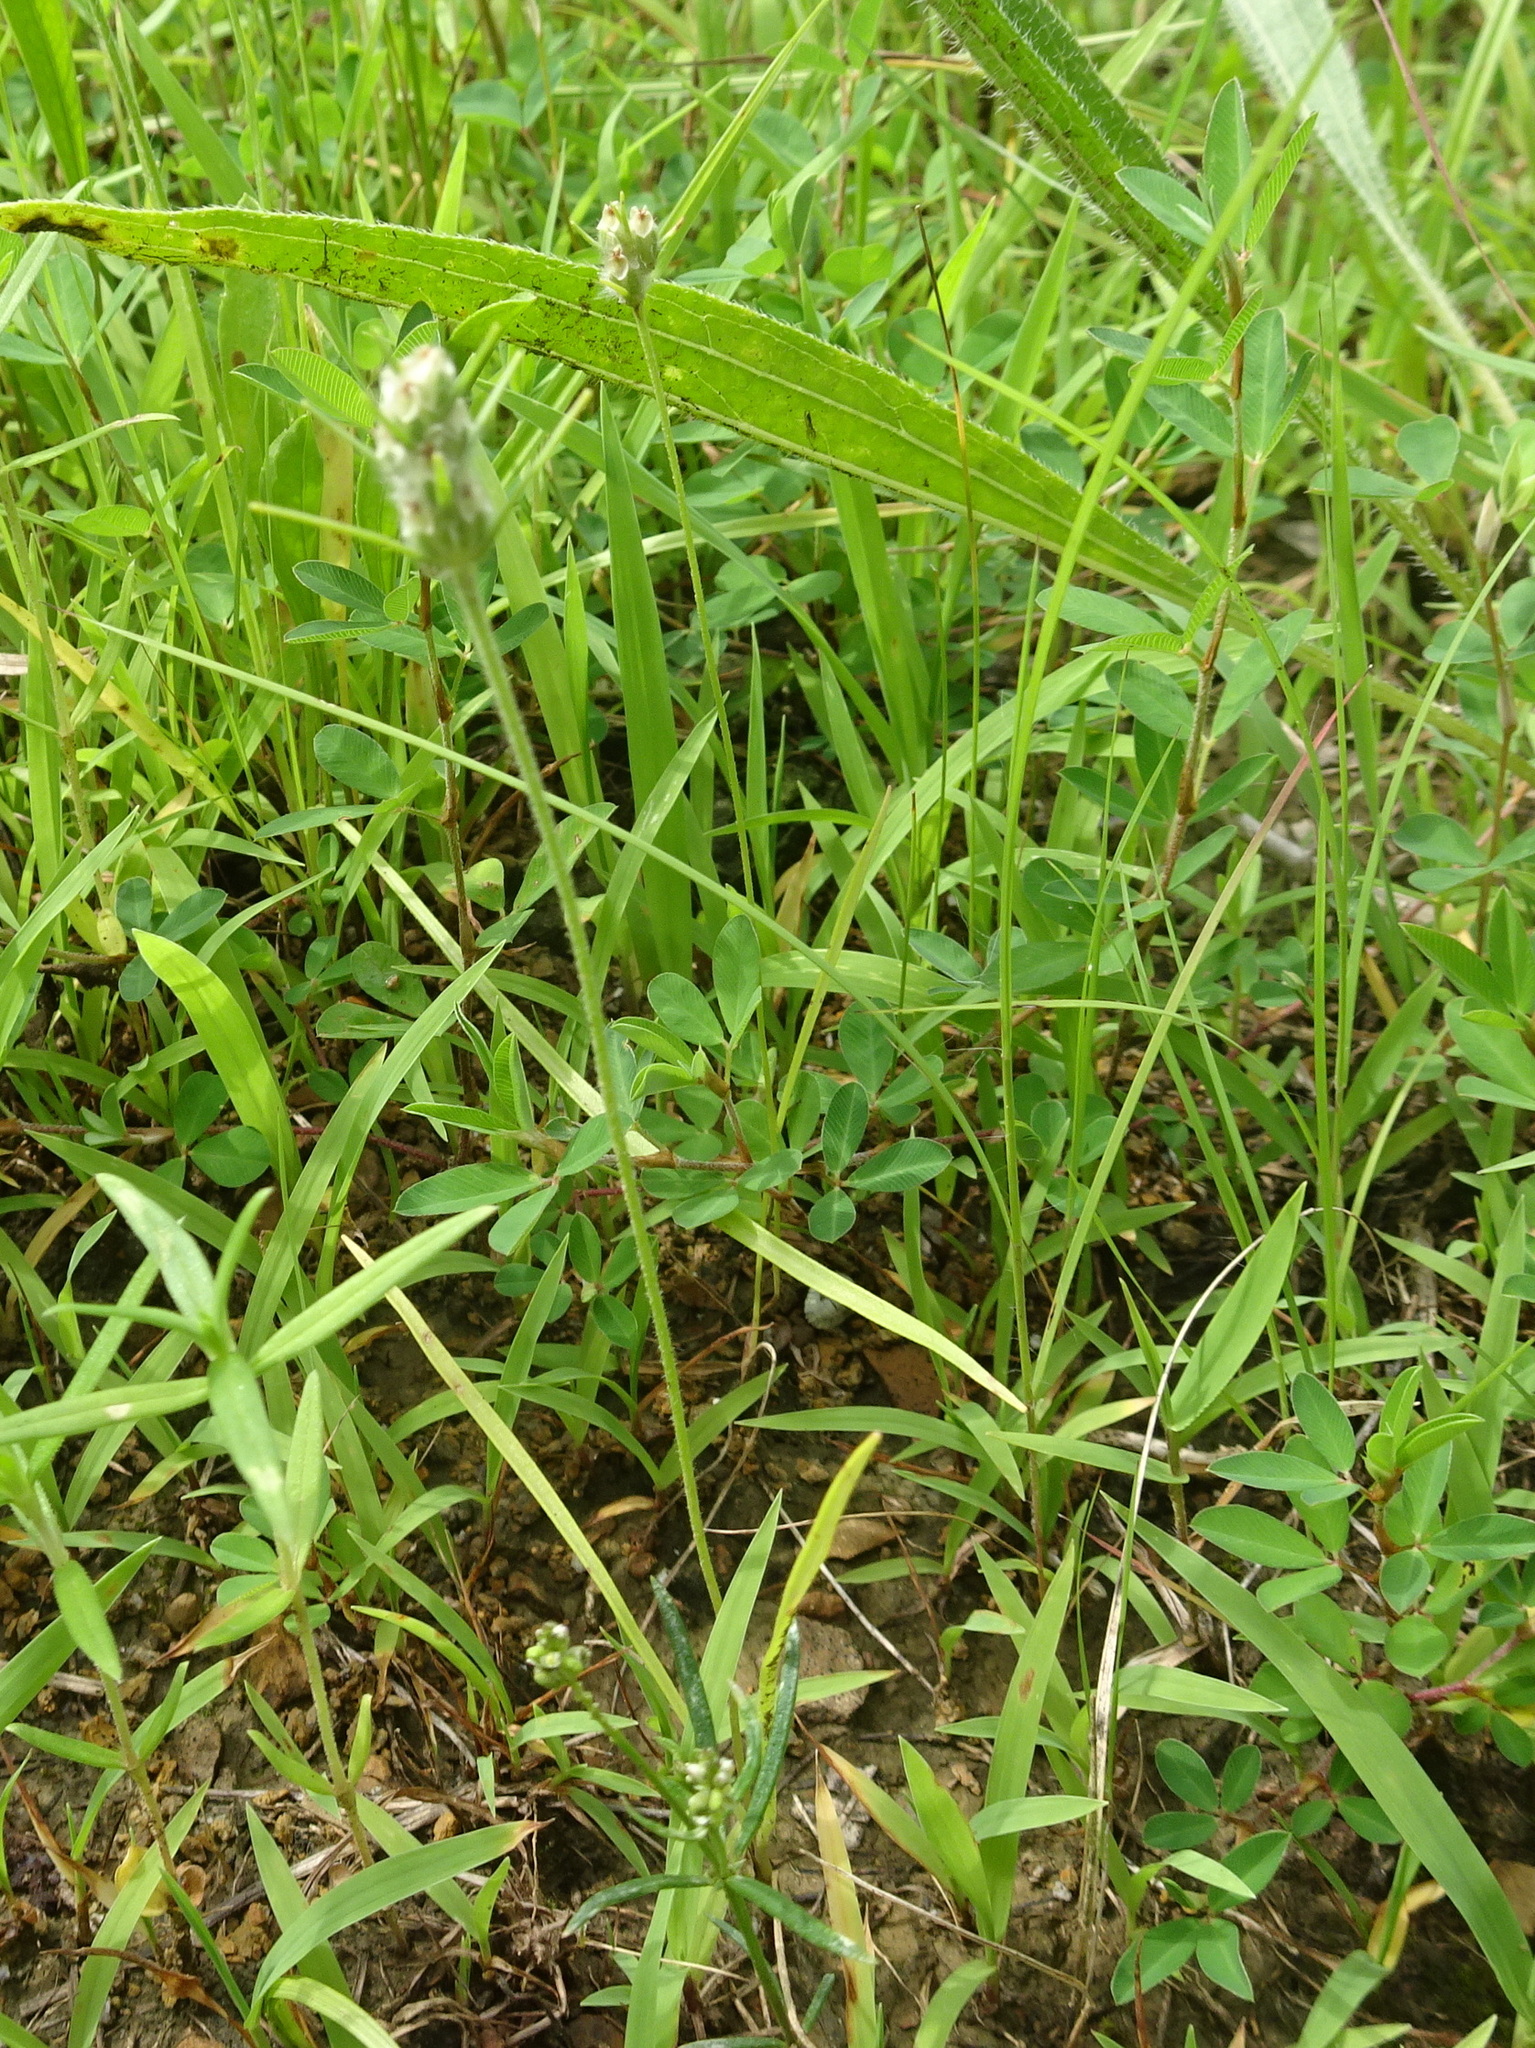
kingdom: Plantae
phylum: Tracheophyta
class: Magnoliopsida
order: Lamiales
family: Plantaginaceae
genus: Plantago
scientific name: Plantago aristata
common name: Bracted plantain
